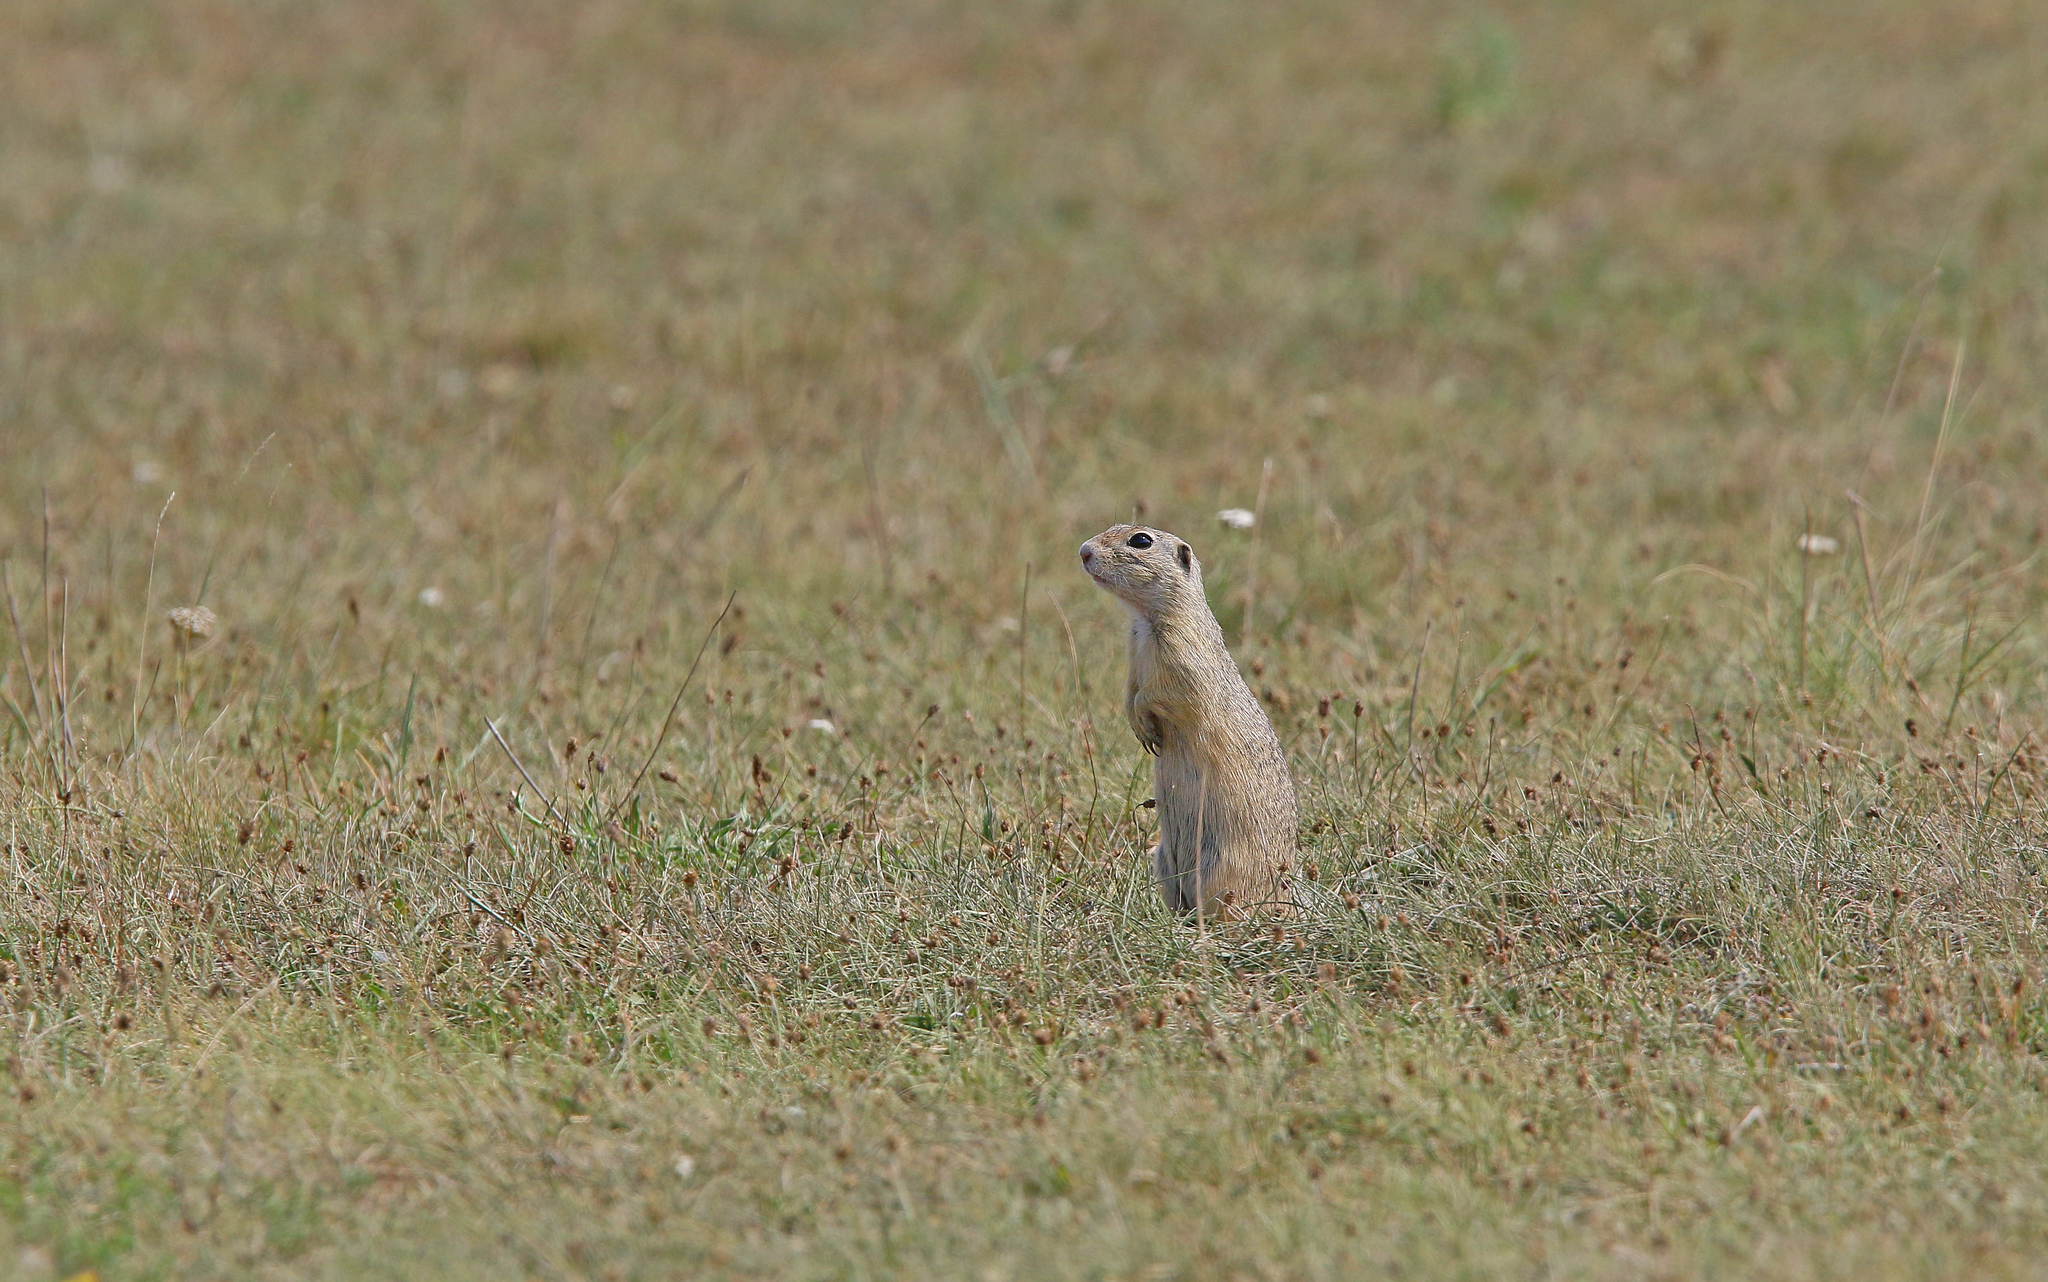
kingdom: Animalia
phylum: Chordata
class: Mammalia
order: Rodentia
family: Sciuridae
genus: Spermophilus
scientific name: Spermophilus citellus
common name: European ground squirrel
